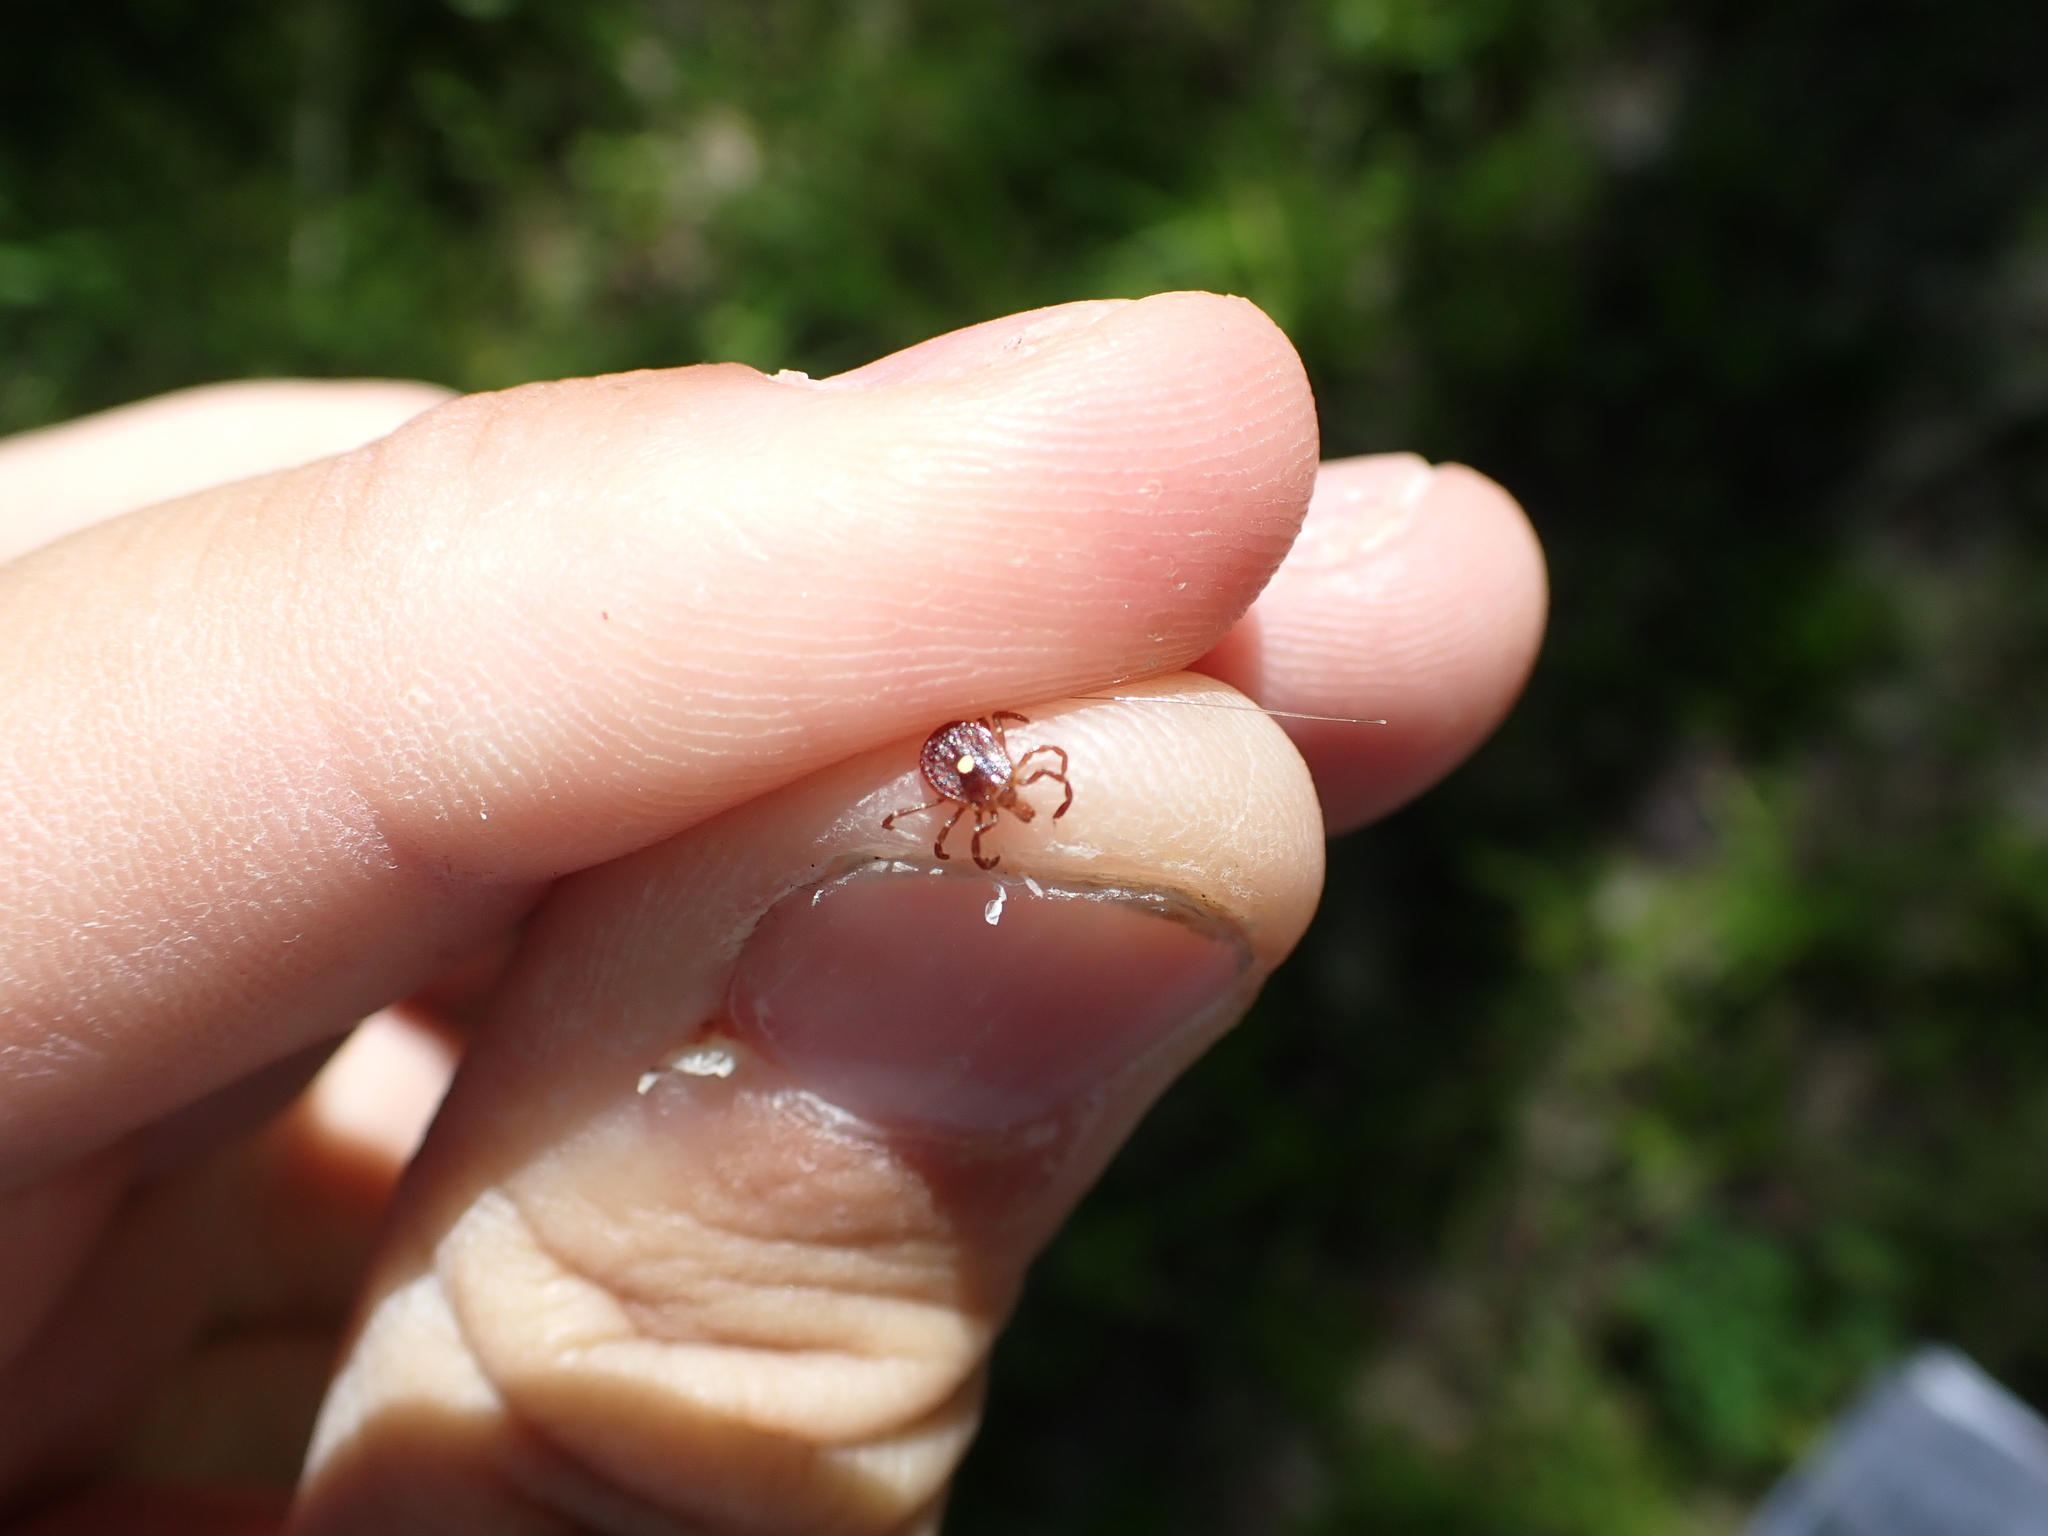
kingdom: Animalia
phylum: Arthropoda
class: Arachnida
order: Ixodida
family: Ixodidae
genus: Amblyomma
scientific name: Amblyomma americanum
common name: Lone star tick
